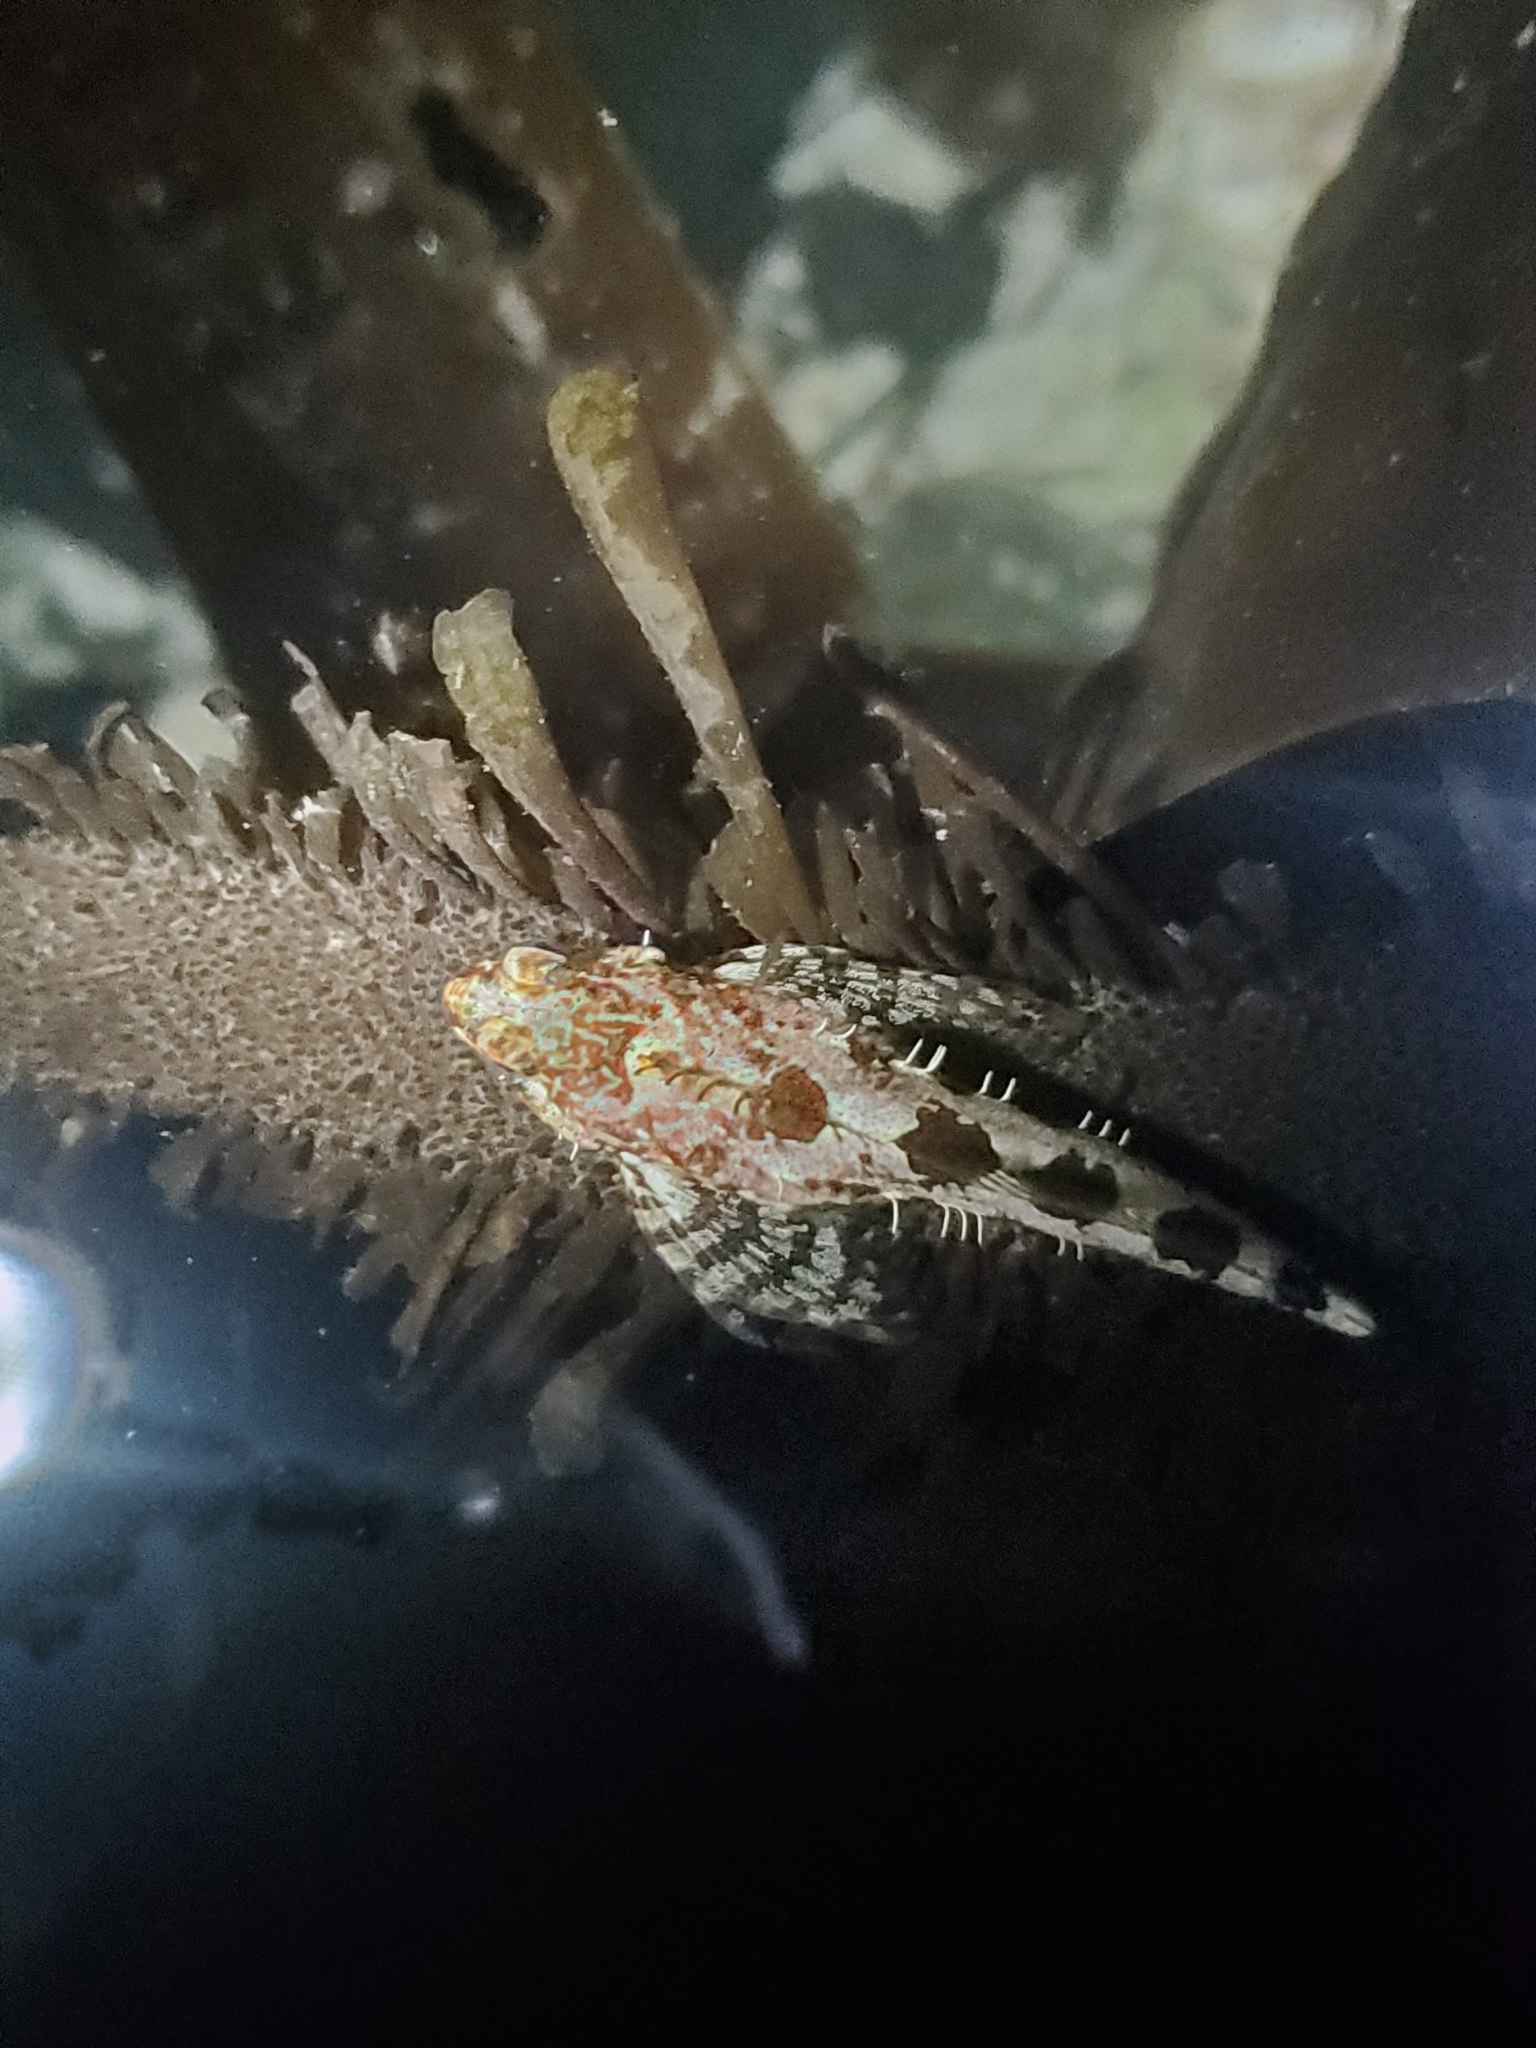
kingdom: Animalia
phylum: Chordata
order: Scorpaeniformes
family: Cottidae
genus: Oligocottus
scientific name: Oligocottus rimensis
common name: Saddleback sculpin
